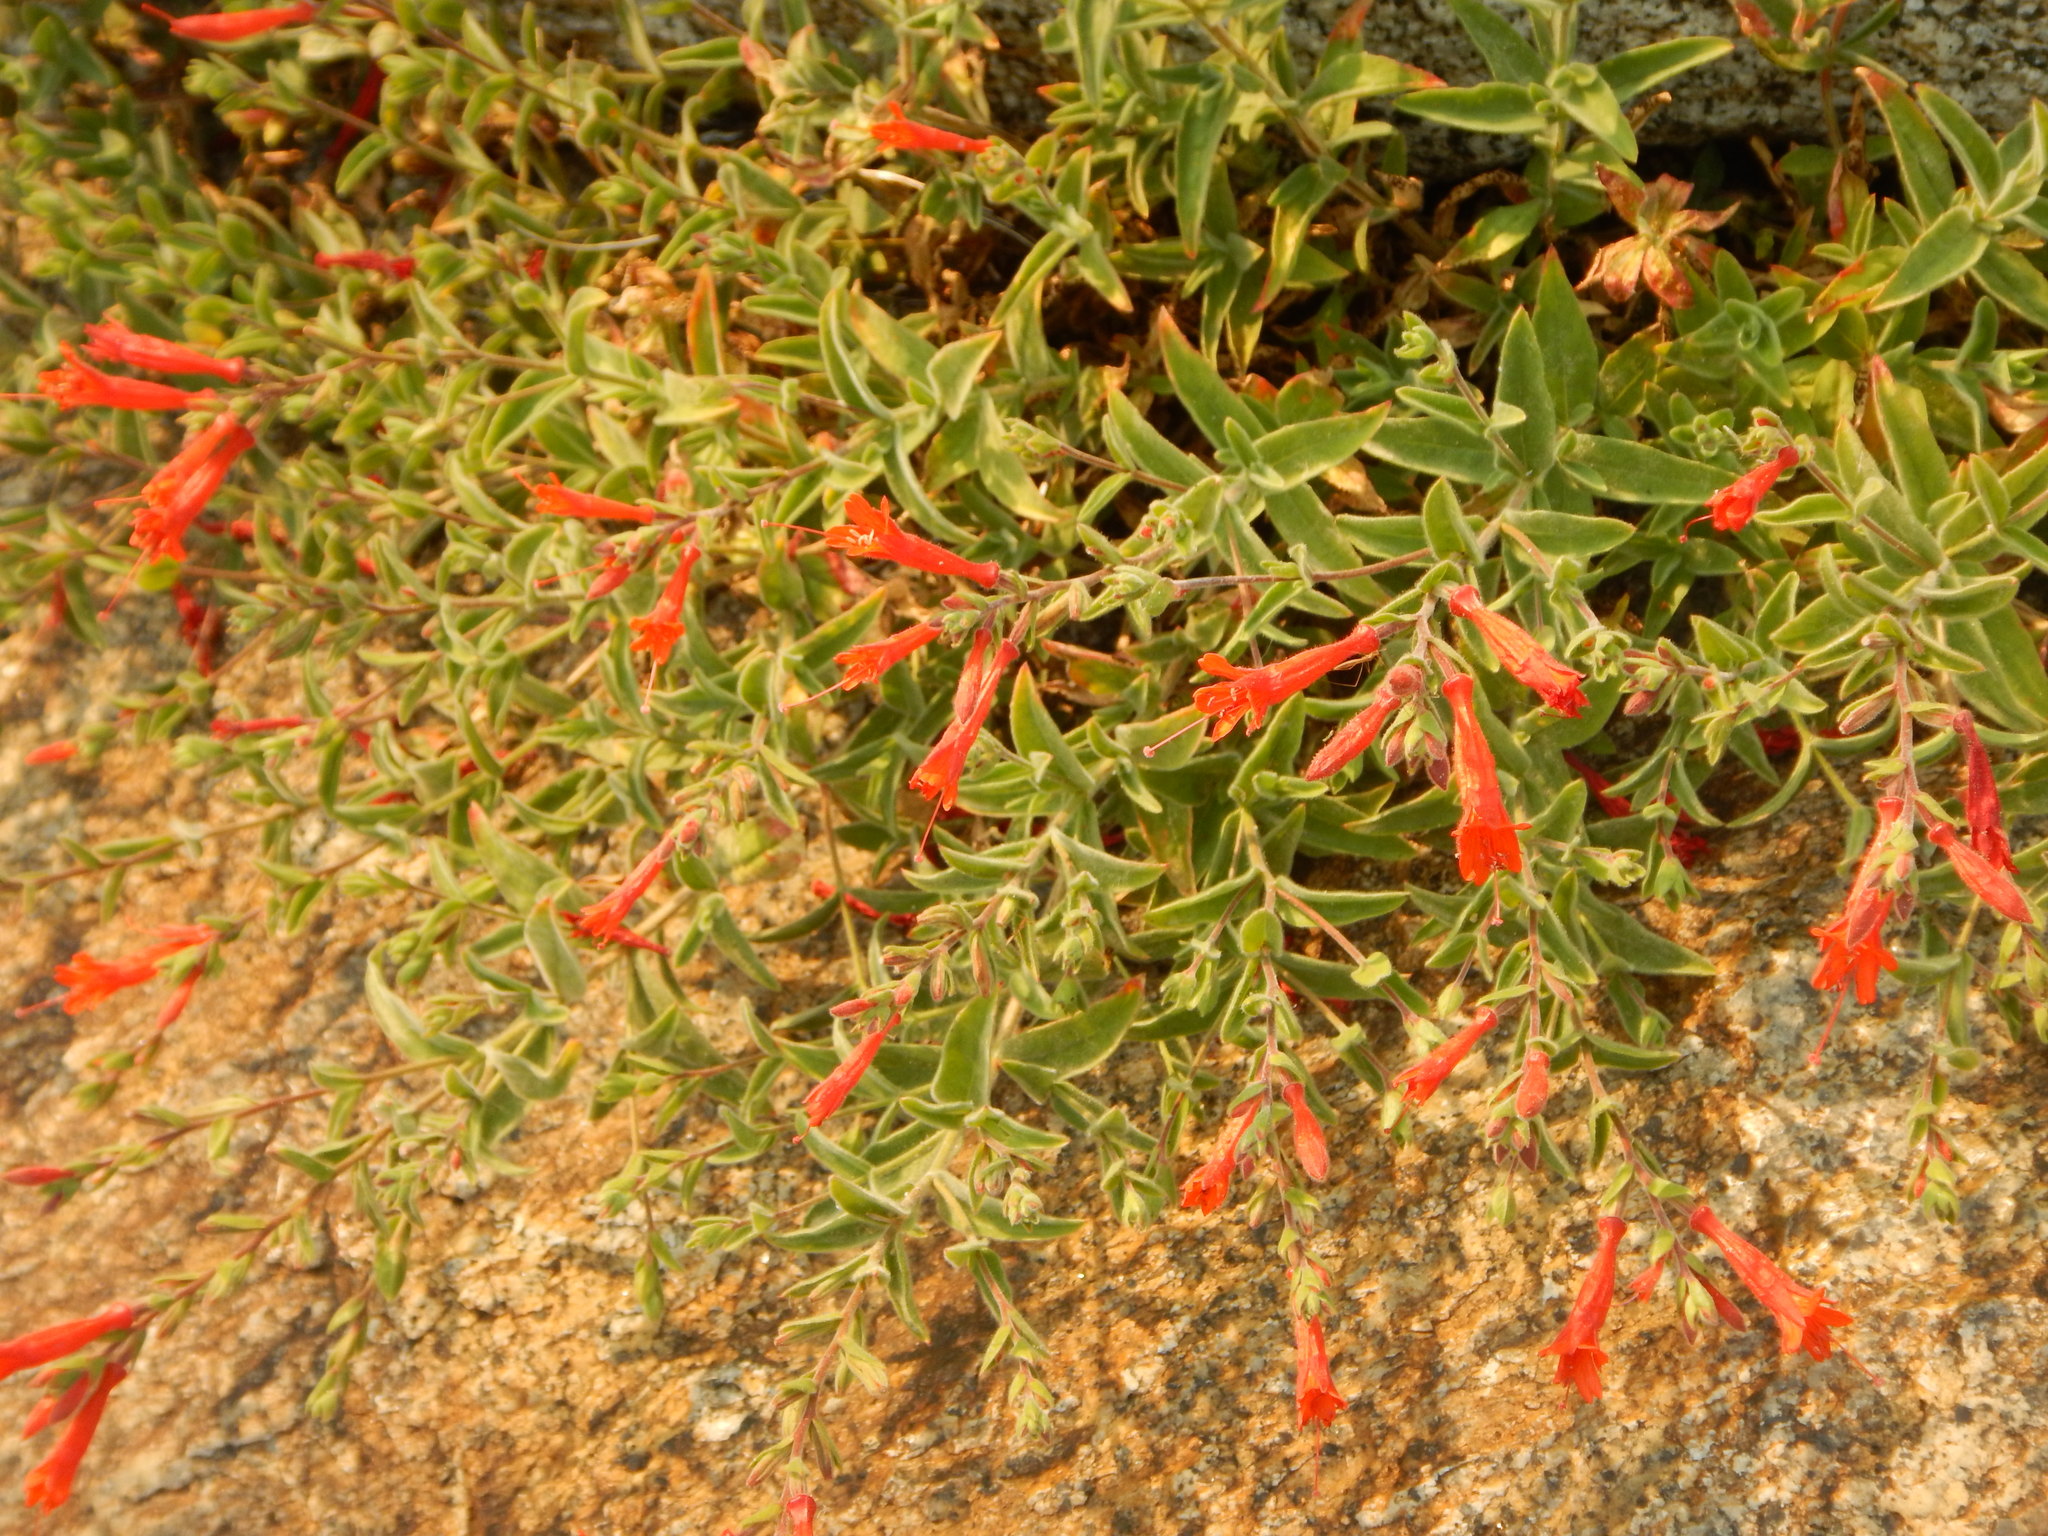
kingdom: Plantae
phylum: Tracheophyta
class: Magnoliopsida
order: Myrtales
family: Onagraceae
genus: Epilobium
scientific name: Epilobium canum
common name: California-fuchsia
